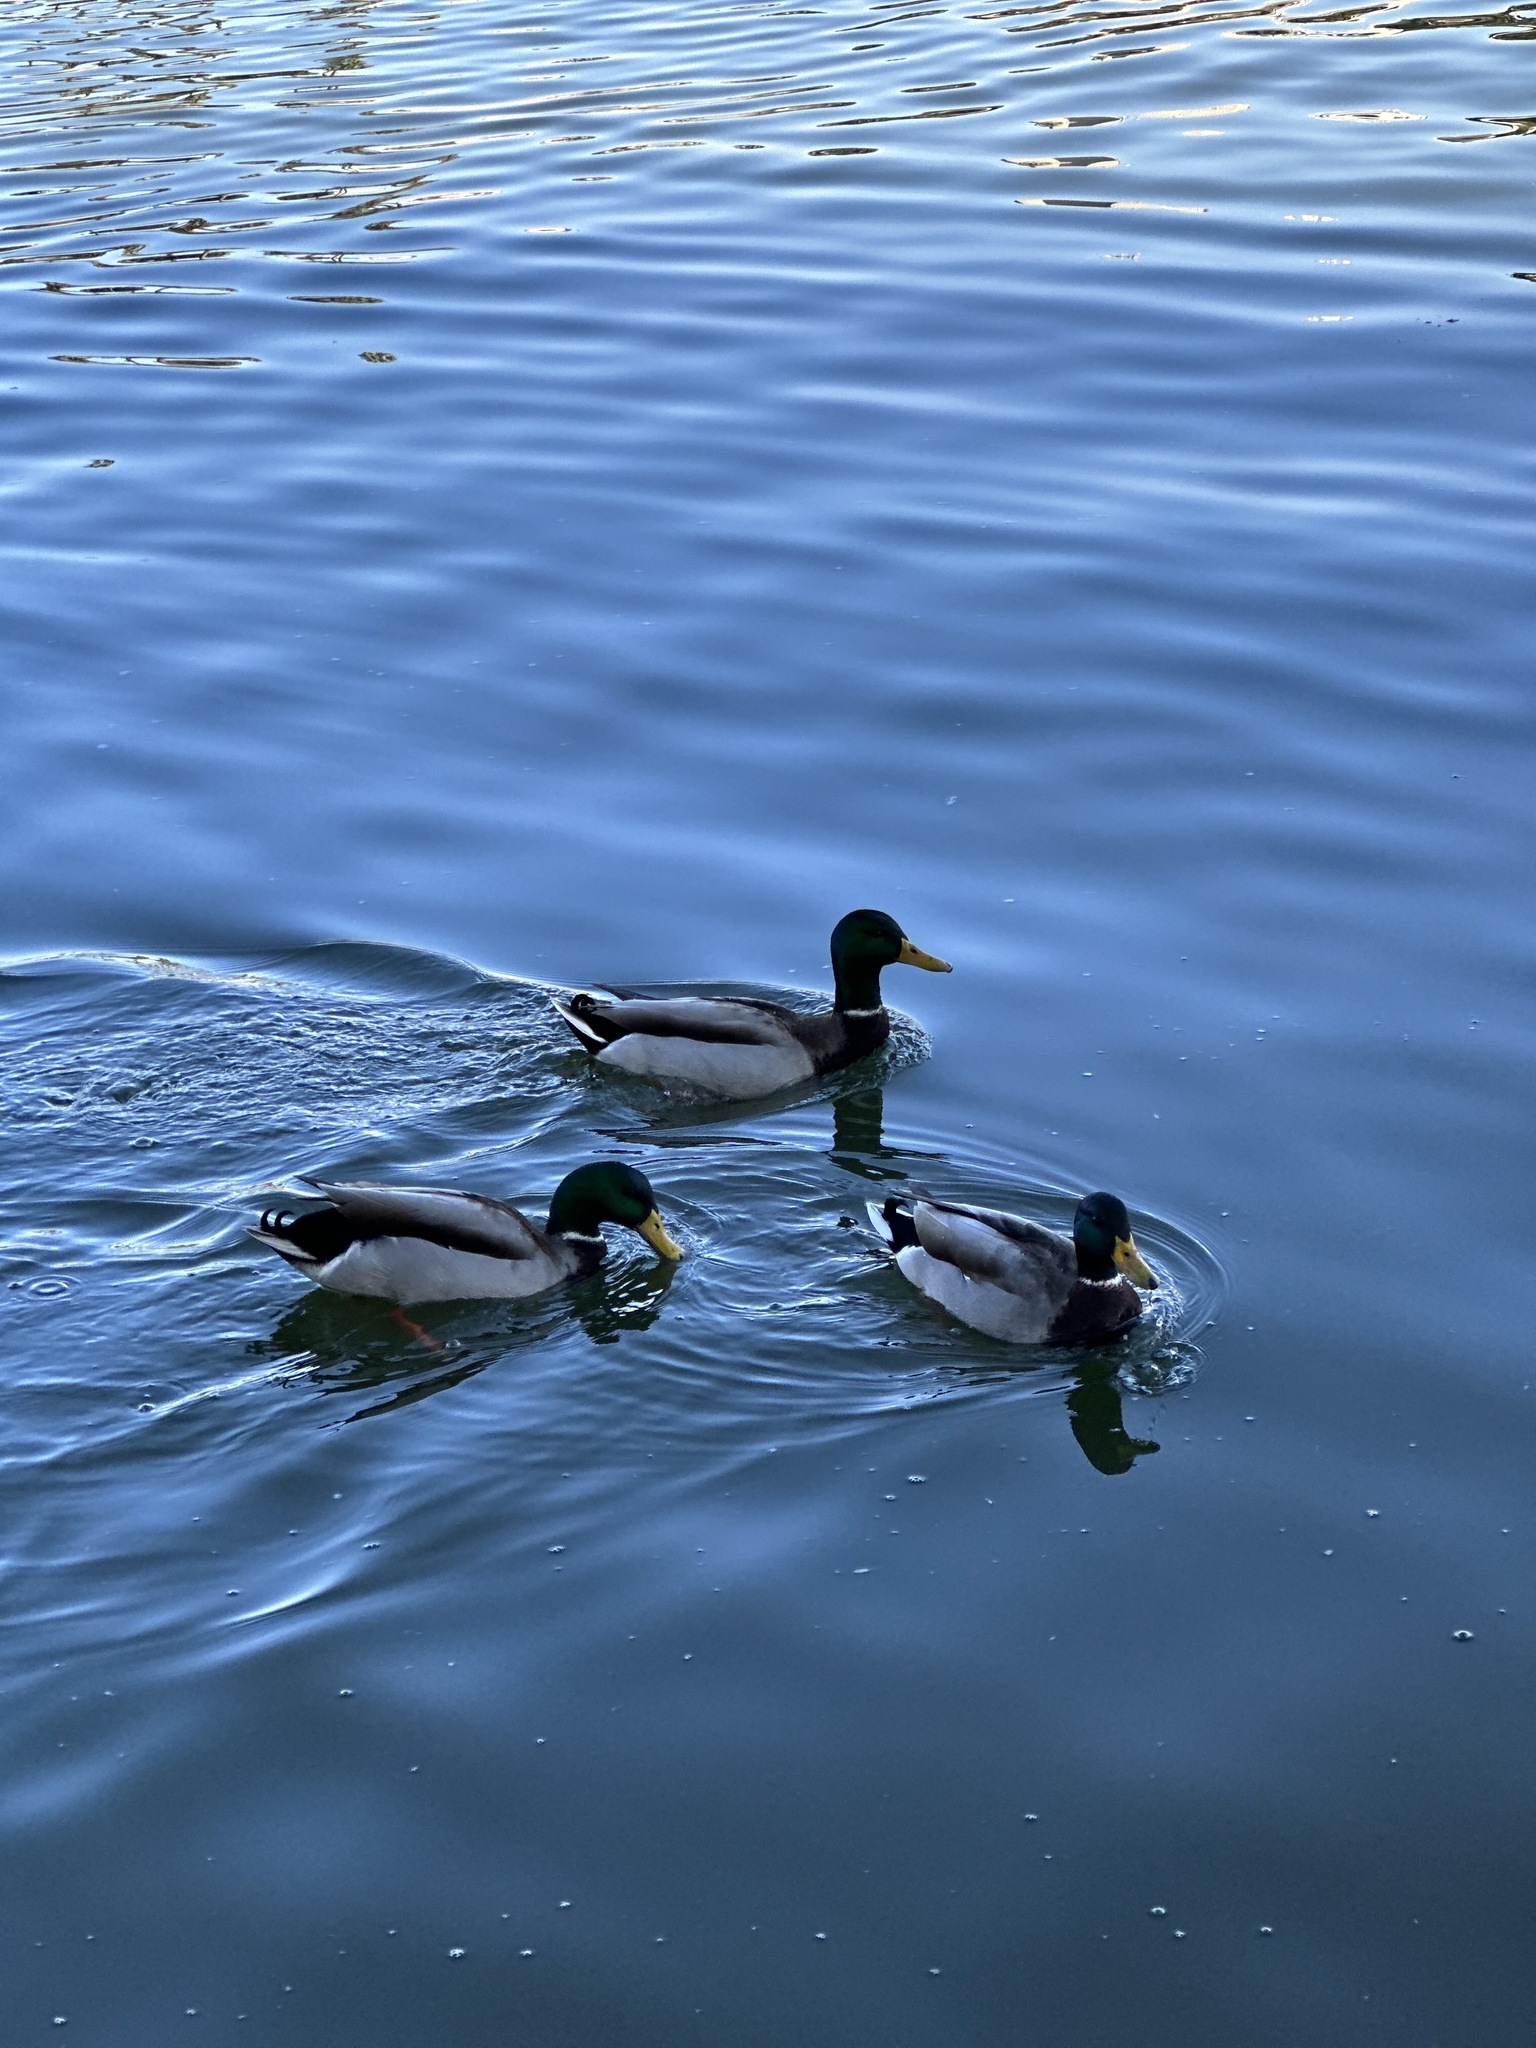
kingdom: Animalia
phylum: Chordata
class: Aves
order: Anseriformes
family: Anatidae
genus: Anas
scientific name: Anas platyrhynchos
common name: Mallard
